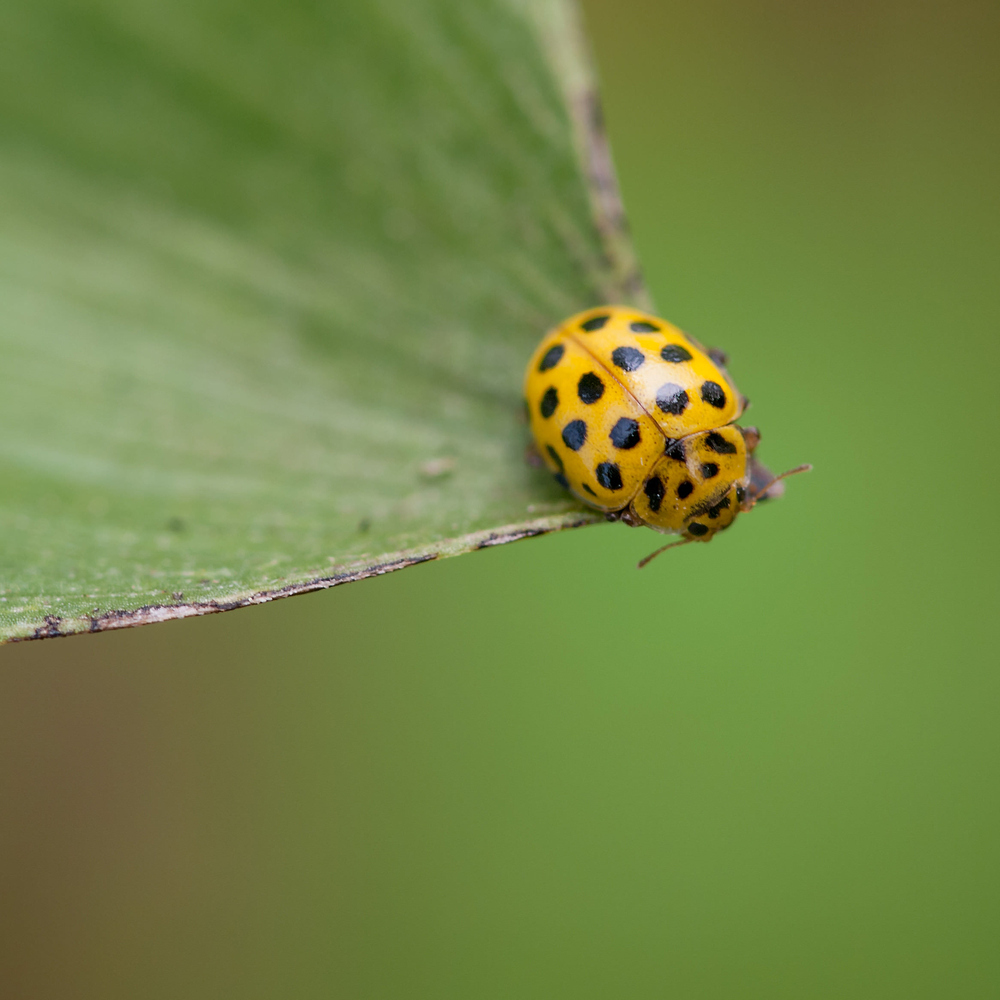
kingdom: Animalia
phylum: Arthropoda
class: Insecta
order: Coleoptera
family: Coccinellidae
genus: Psyllobora
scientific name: Psyllobora vigintiduopunctata
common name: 22-spot ladybird
